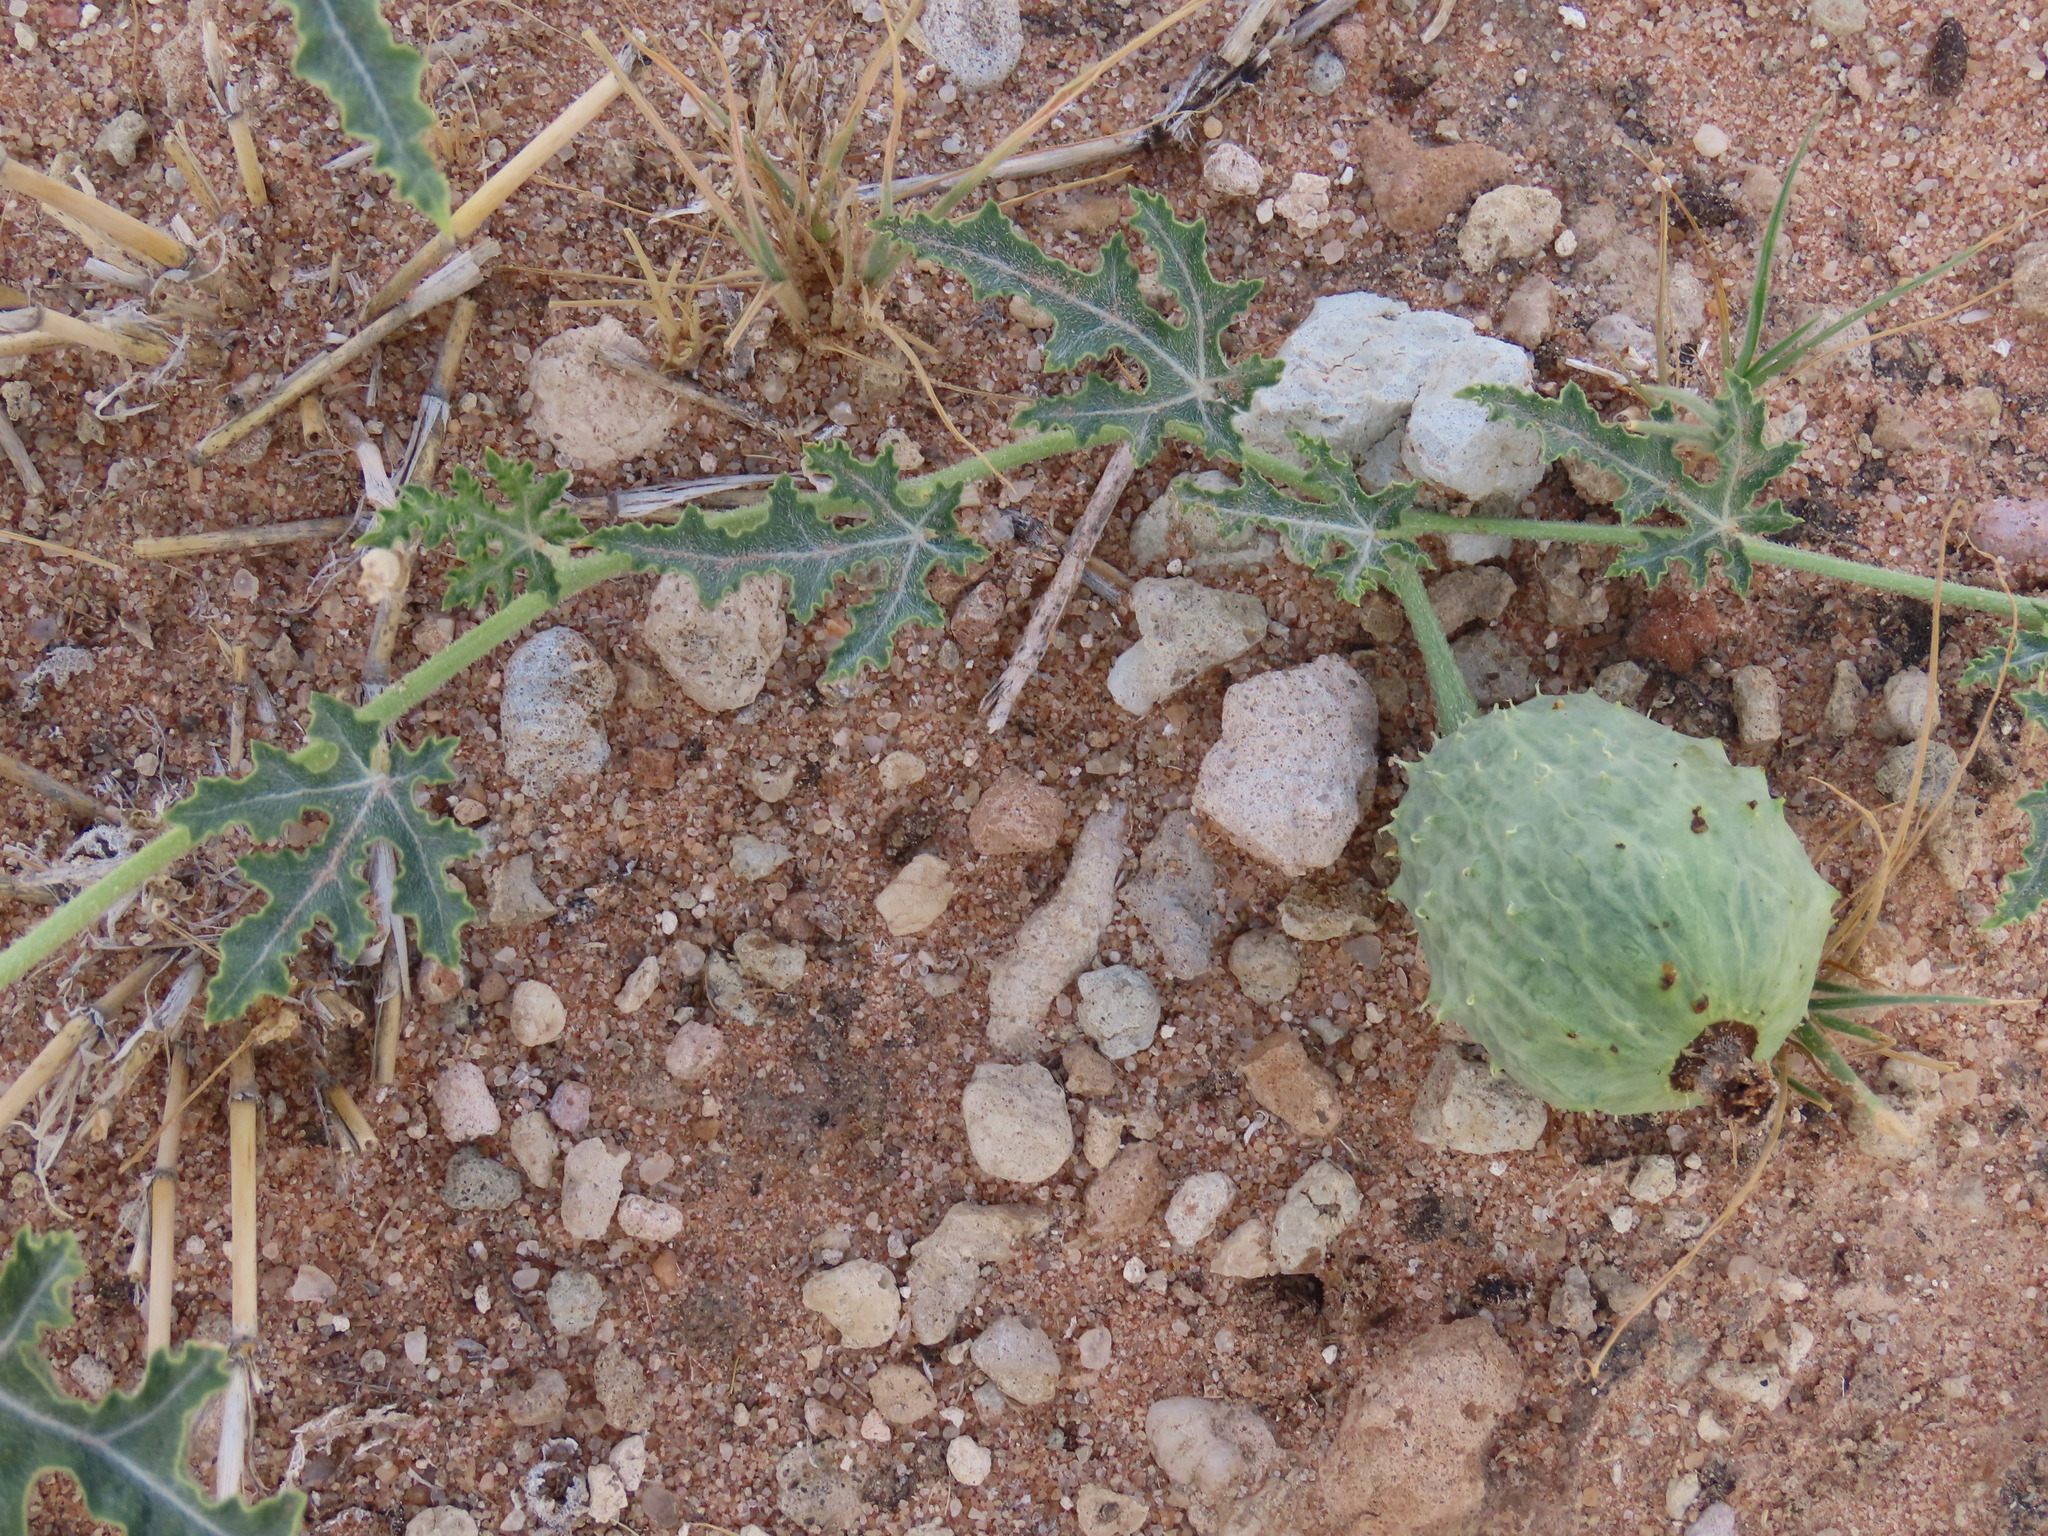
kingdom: Plantae
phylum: Tracheophyta
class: Magnoliopsida
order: Cucurbitales
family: Cucurbitaceae
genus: Citrullus
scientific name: Citrullus naudinianus
